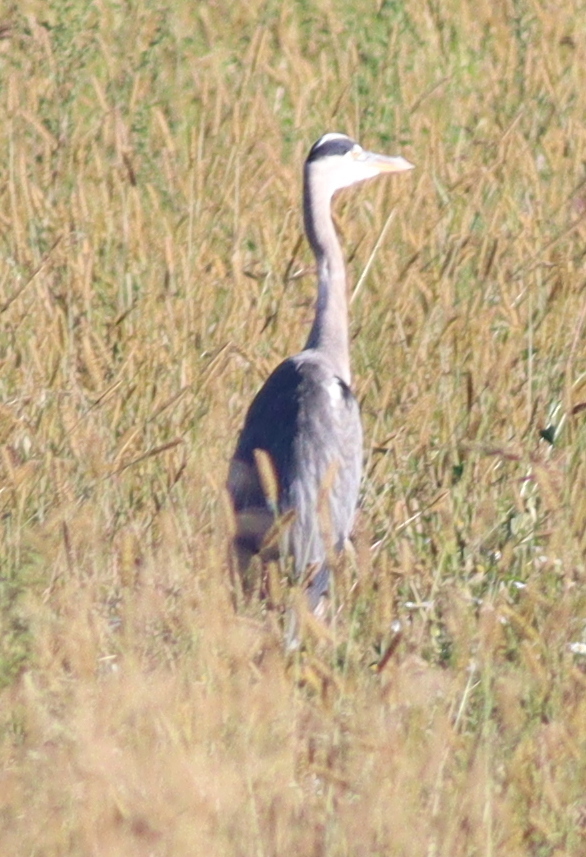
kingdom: Animalia
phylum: Chordata
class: Aves
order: Pelecaniformes
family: Ardeidae
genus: Ardea
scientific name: Ardea cinerea
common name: Grey heron
